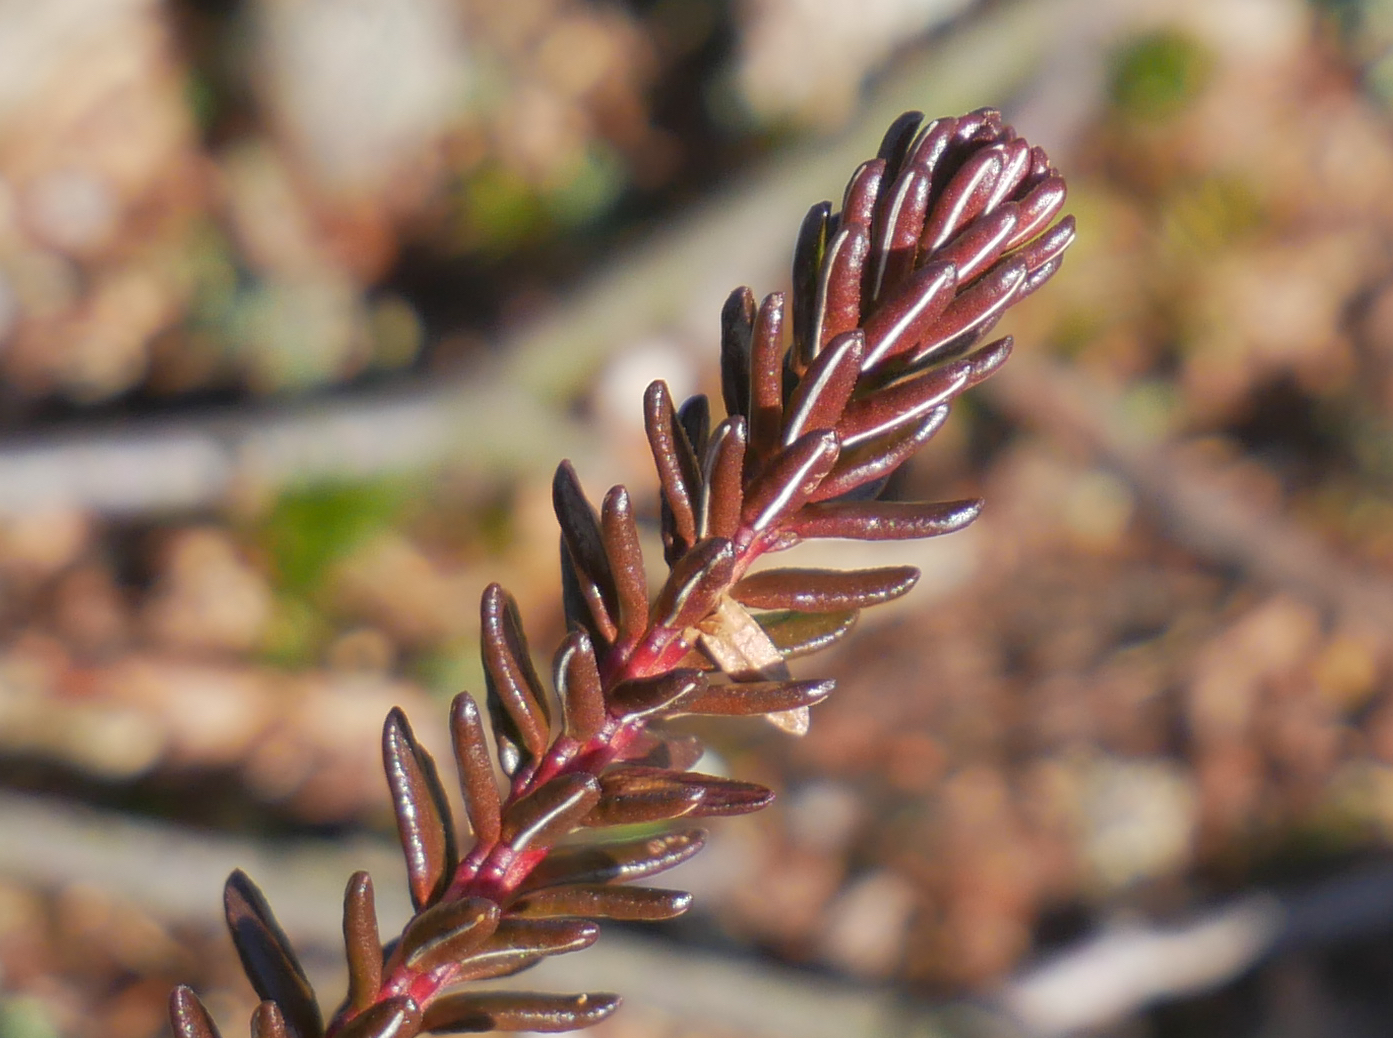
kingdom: Plantae
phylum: Tracheophyta
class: Magnoliopsida
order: Ericales
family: Ericaceae
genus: Empetrum
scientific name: Empetrum nigrum
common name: Black crowberry
